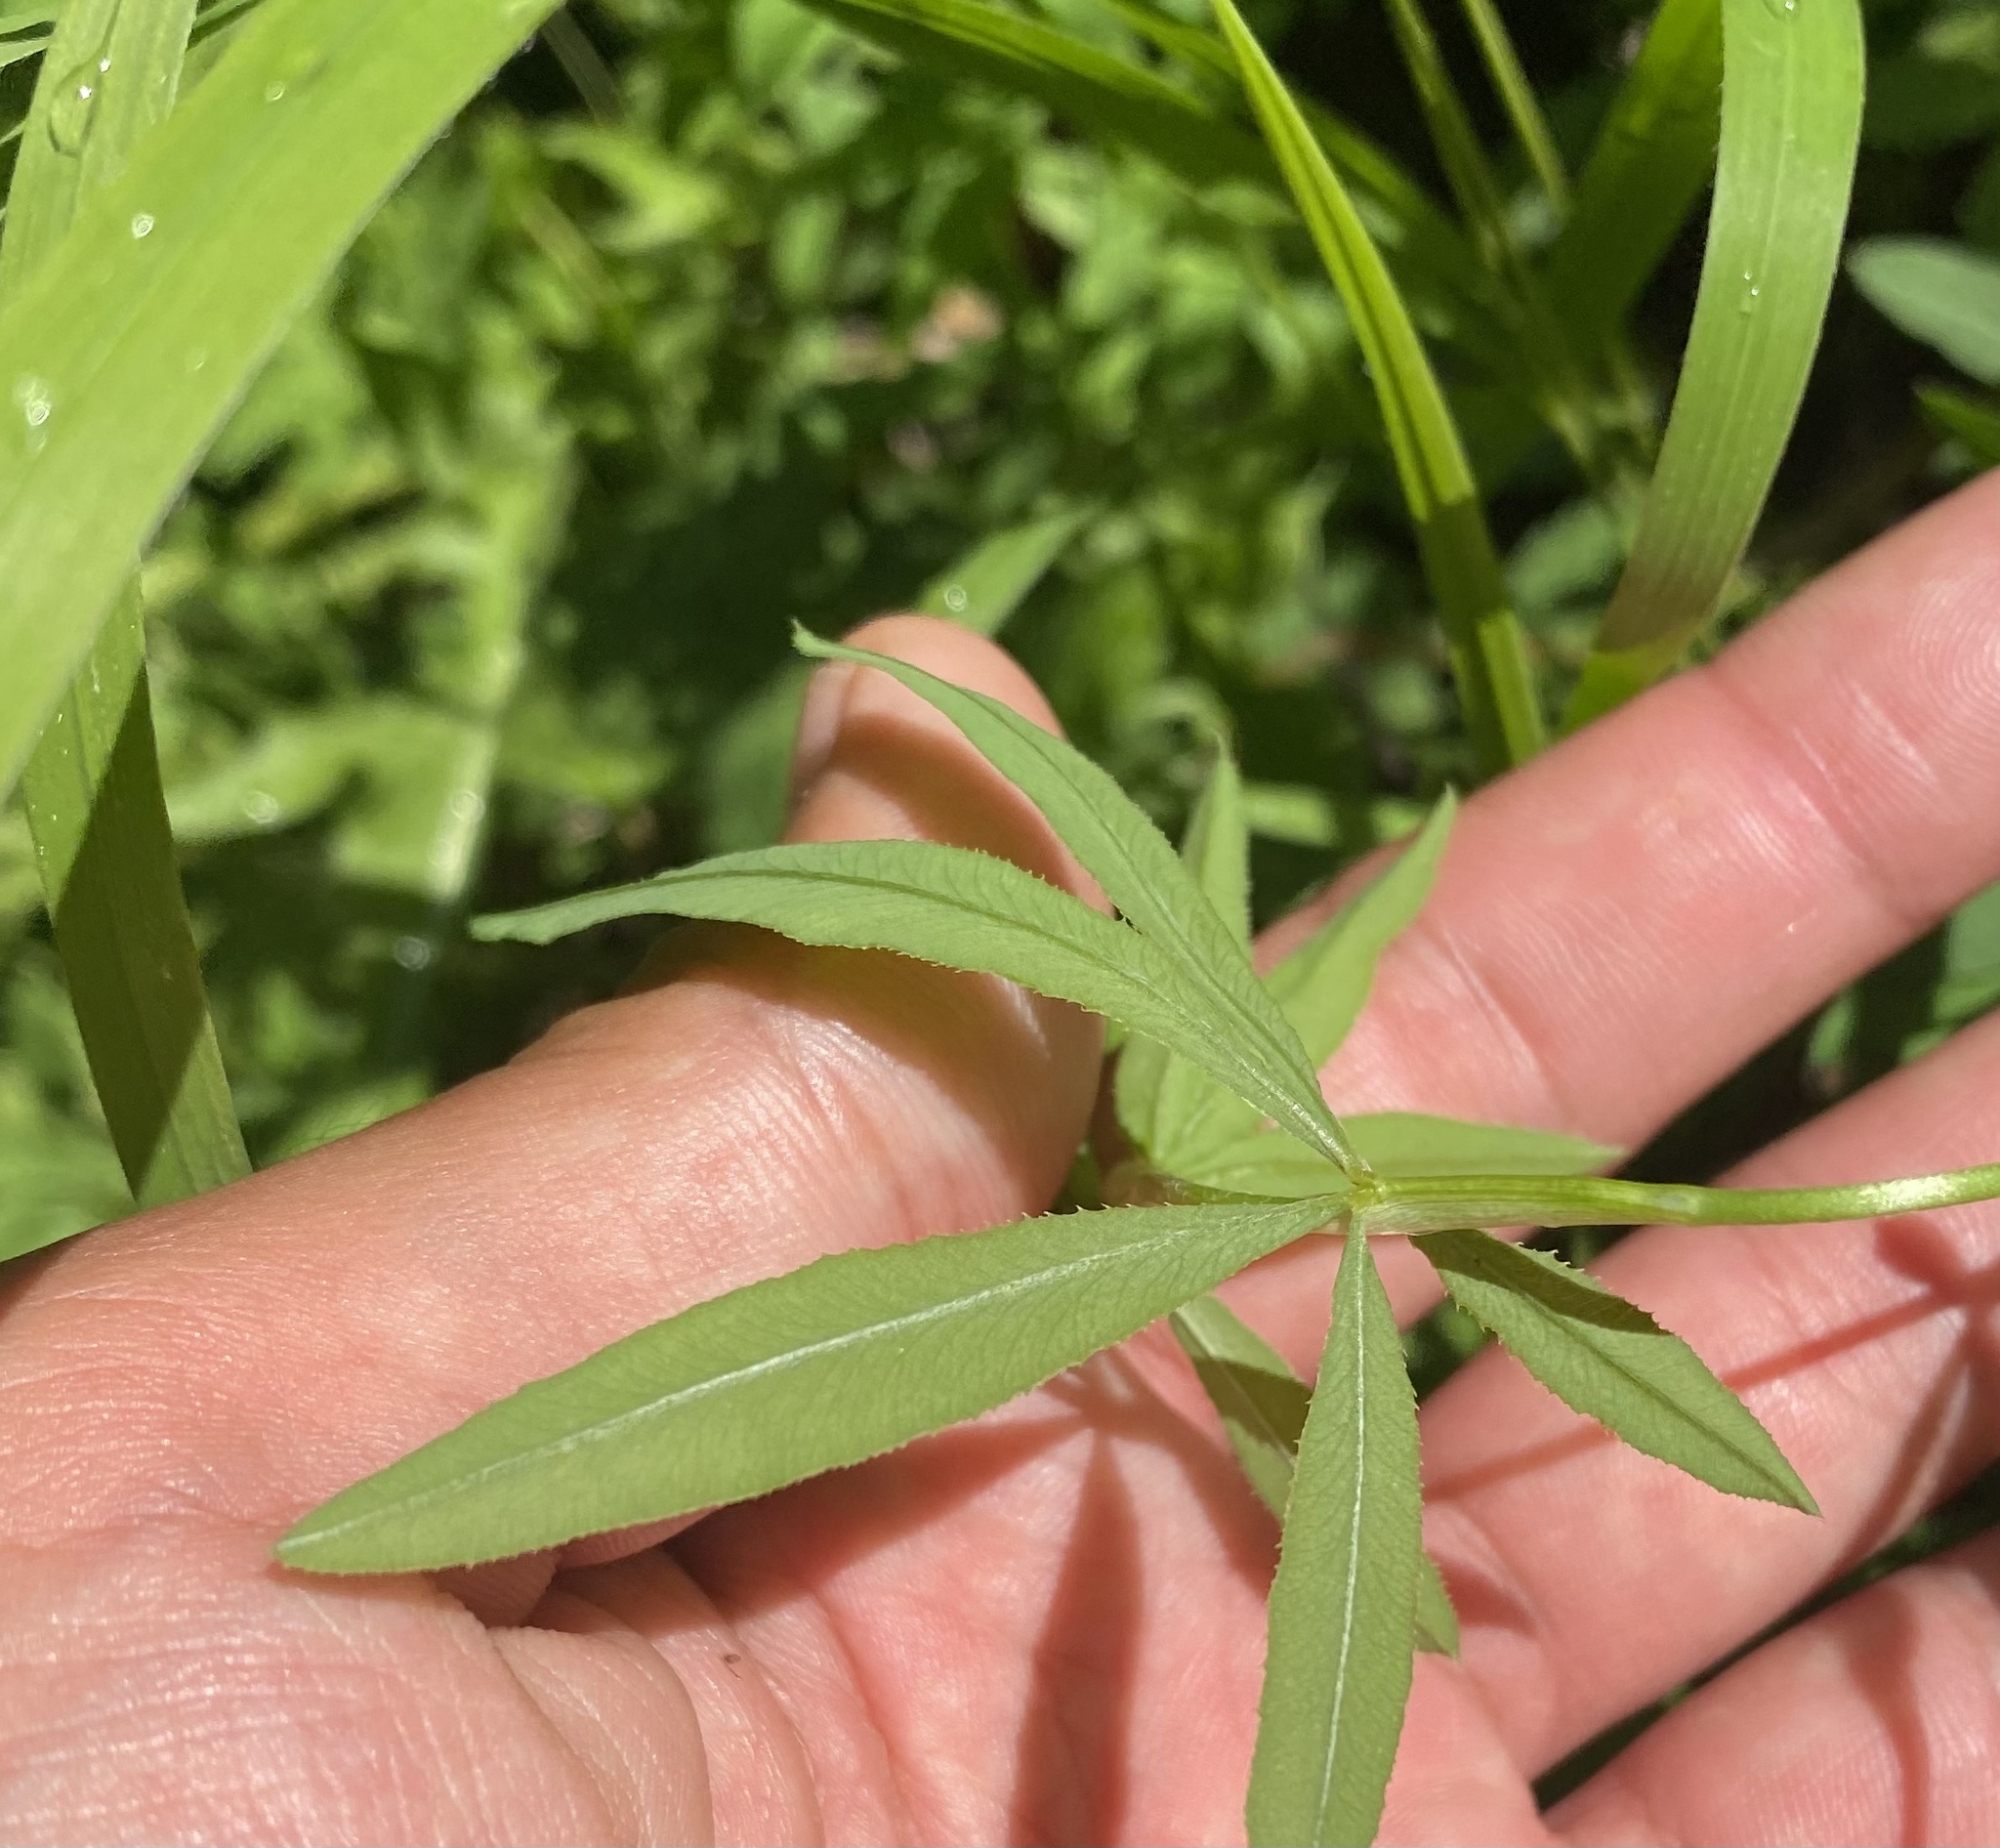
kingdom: Plantae
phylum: Tracheophyta
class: Magnoliopsida
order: Fabales
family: Fabaceae
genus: Trifolium
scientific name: Trifolium lupinaster
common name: Lupine clover
